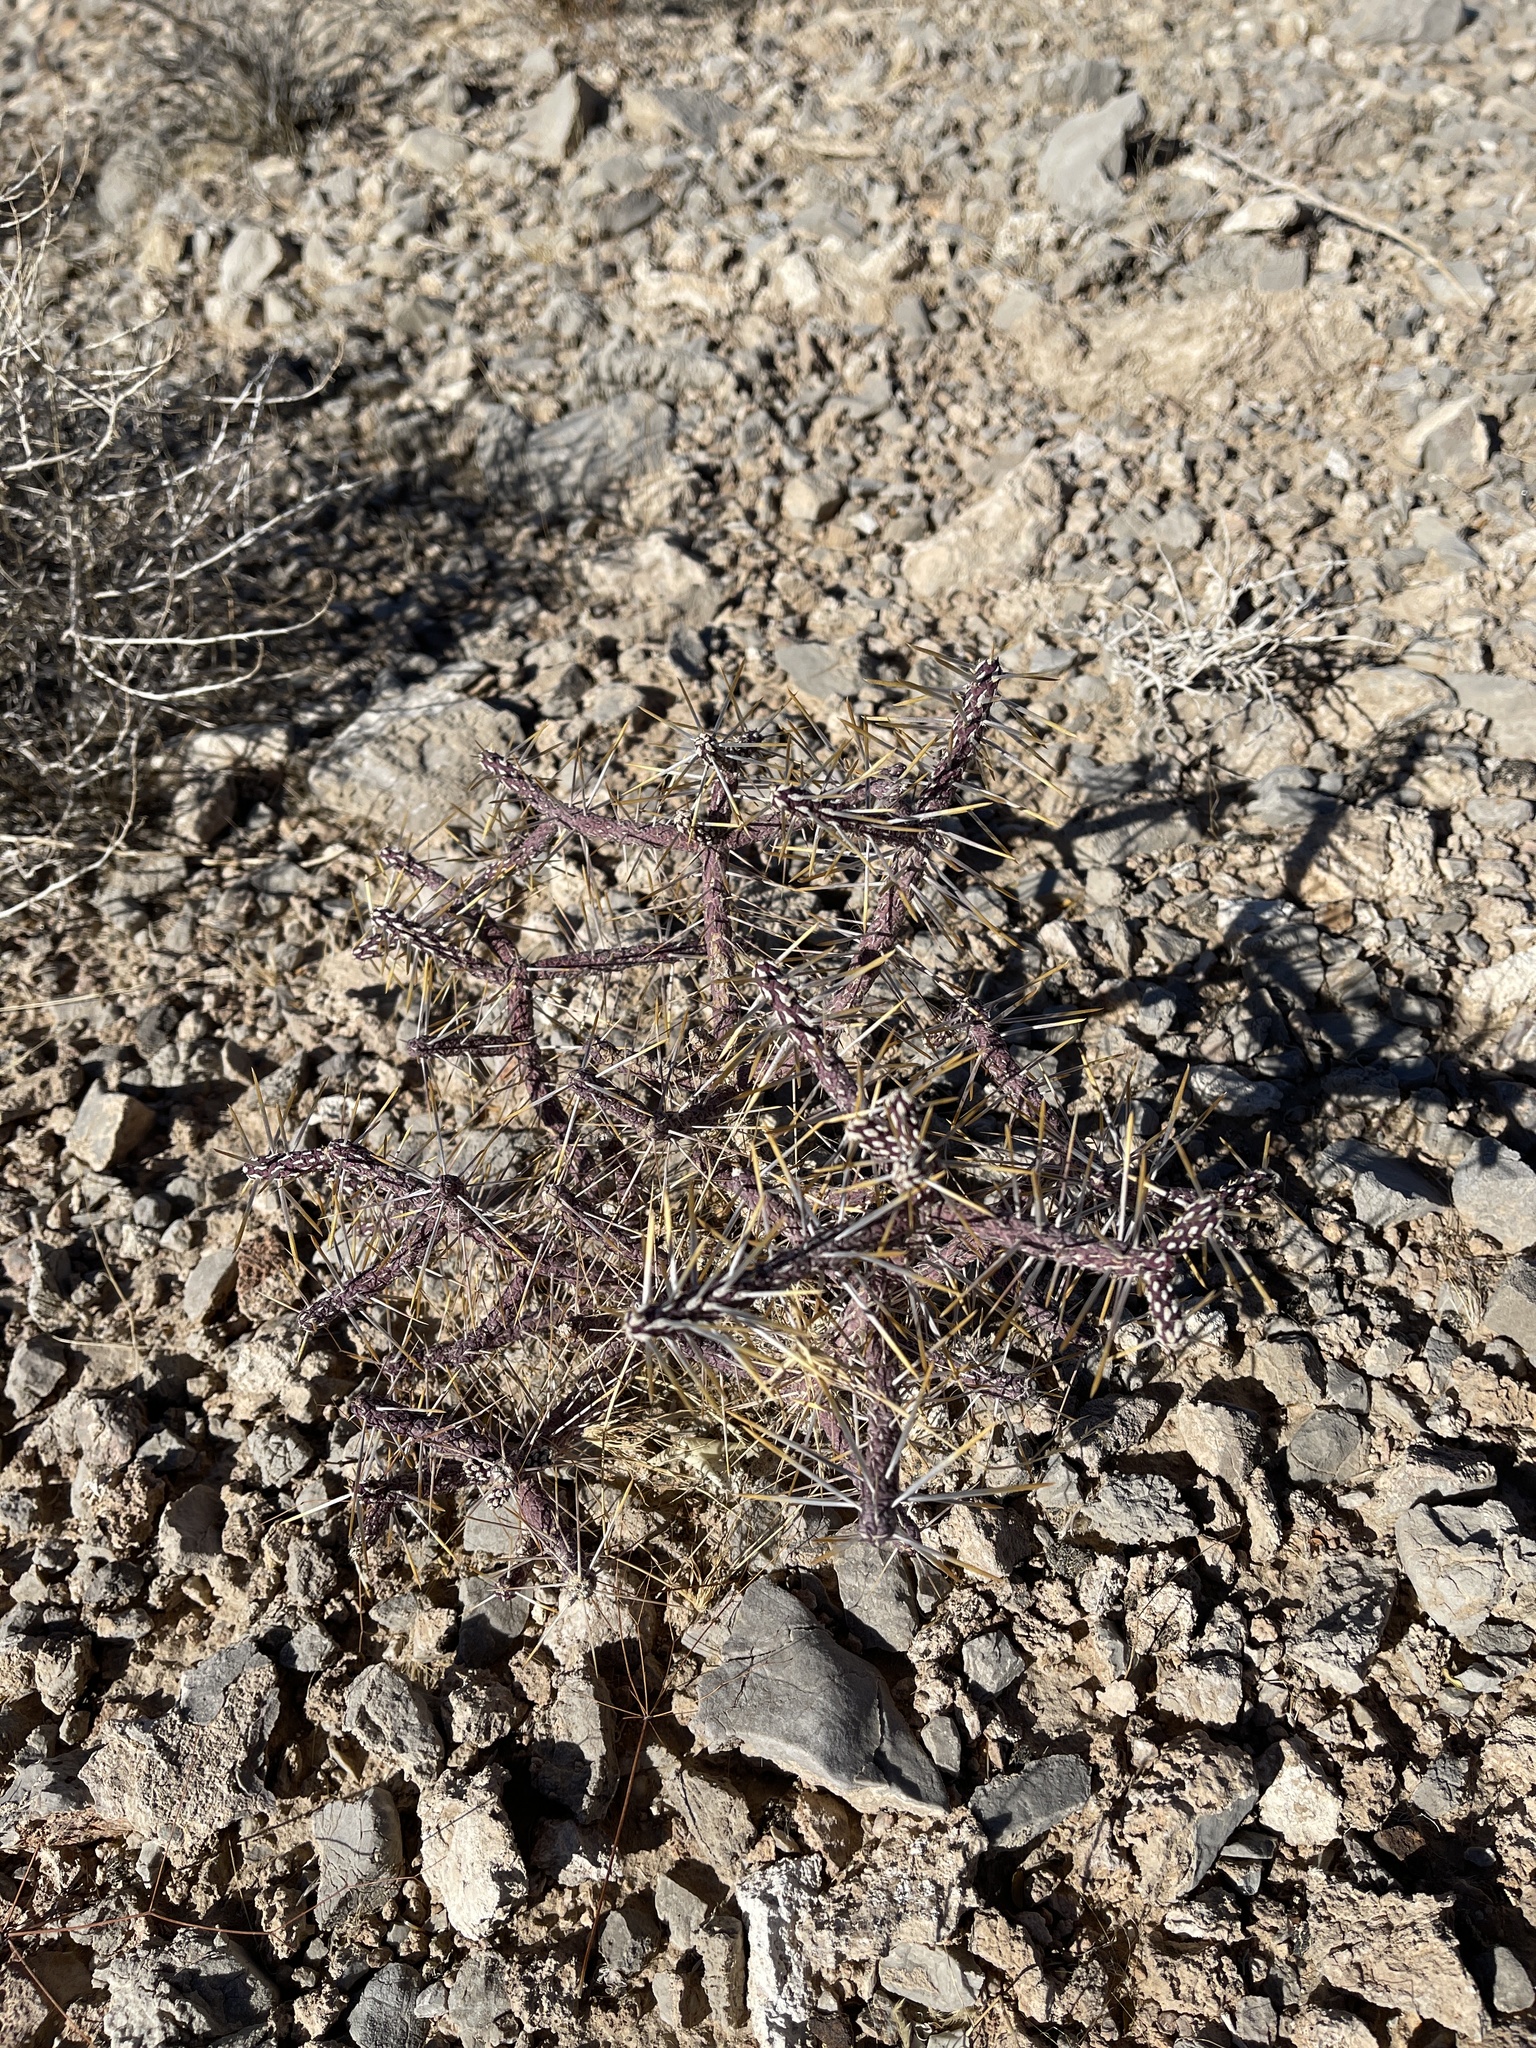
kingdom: Plantae
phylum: Tracheophyta
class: Magnoliopsida
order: Caryophyllales
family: Cactaceae
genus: Cylindropuntia
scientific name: Cylindropuntia ramosissima
